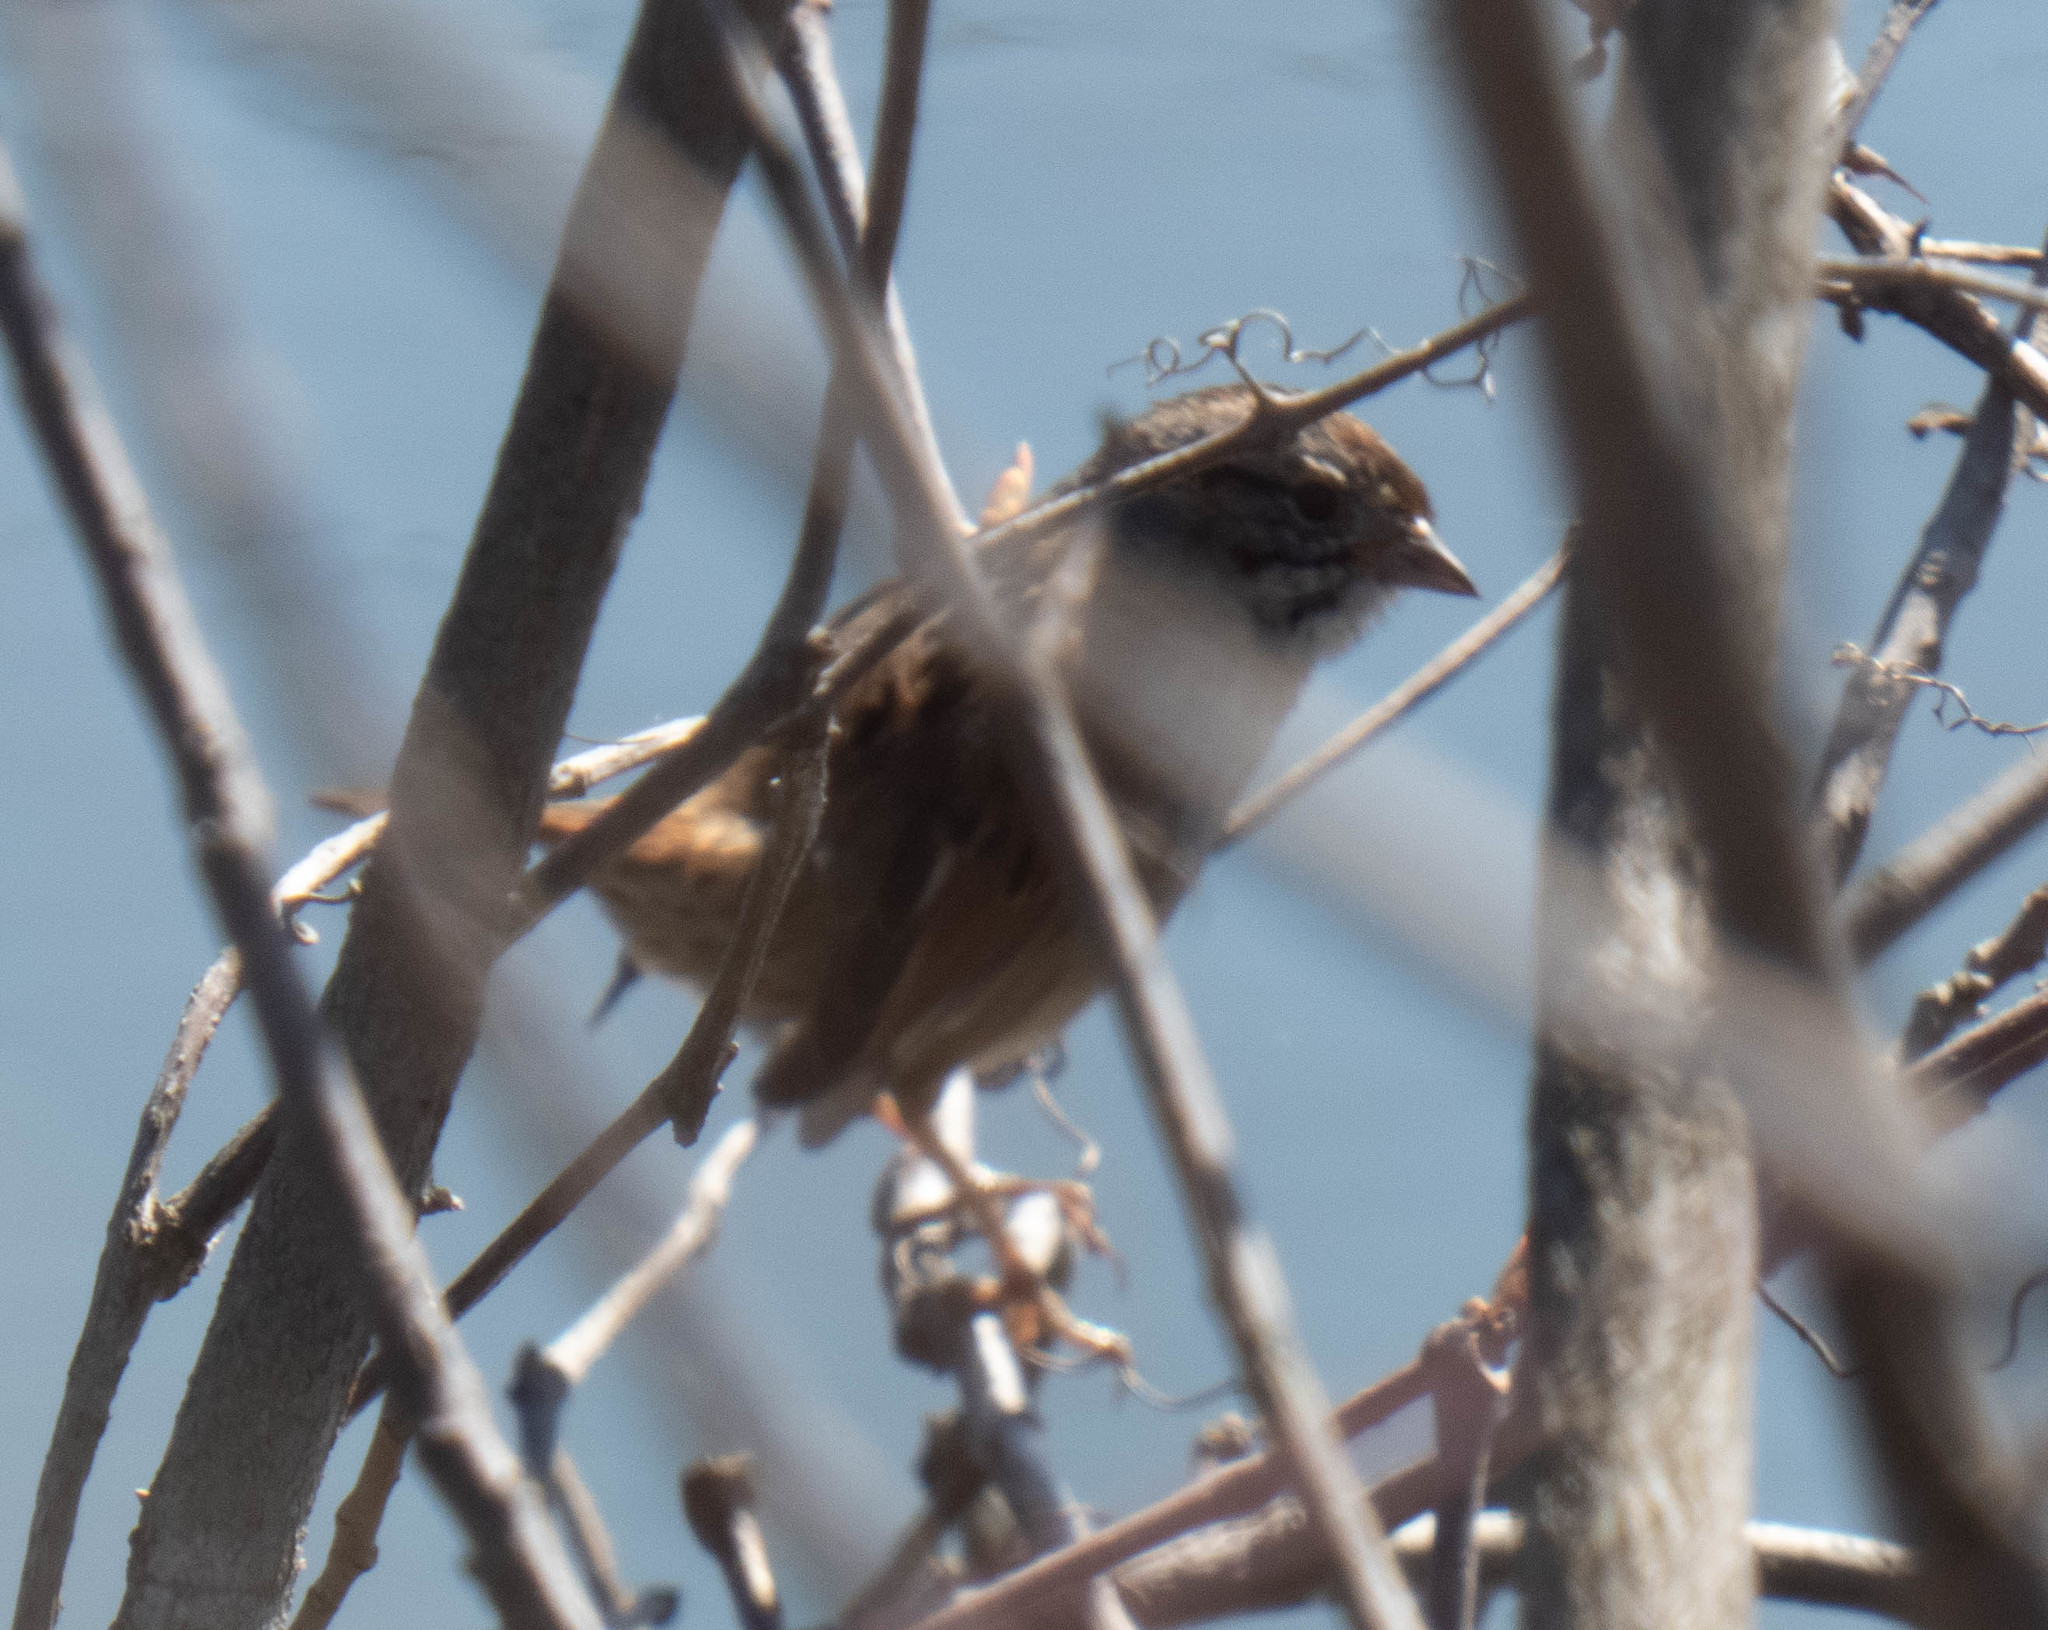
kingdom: Animalia
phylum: Chordata
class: Aves
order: Passeriformes
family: Passerellidae
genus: Melospiza
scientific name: Melospiza georgiana
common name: Swamp sparrow
